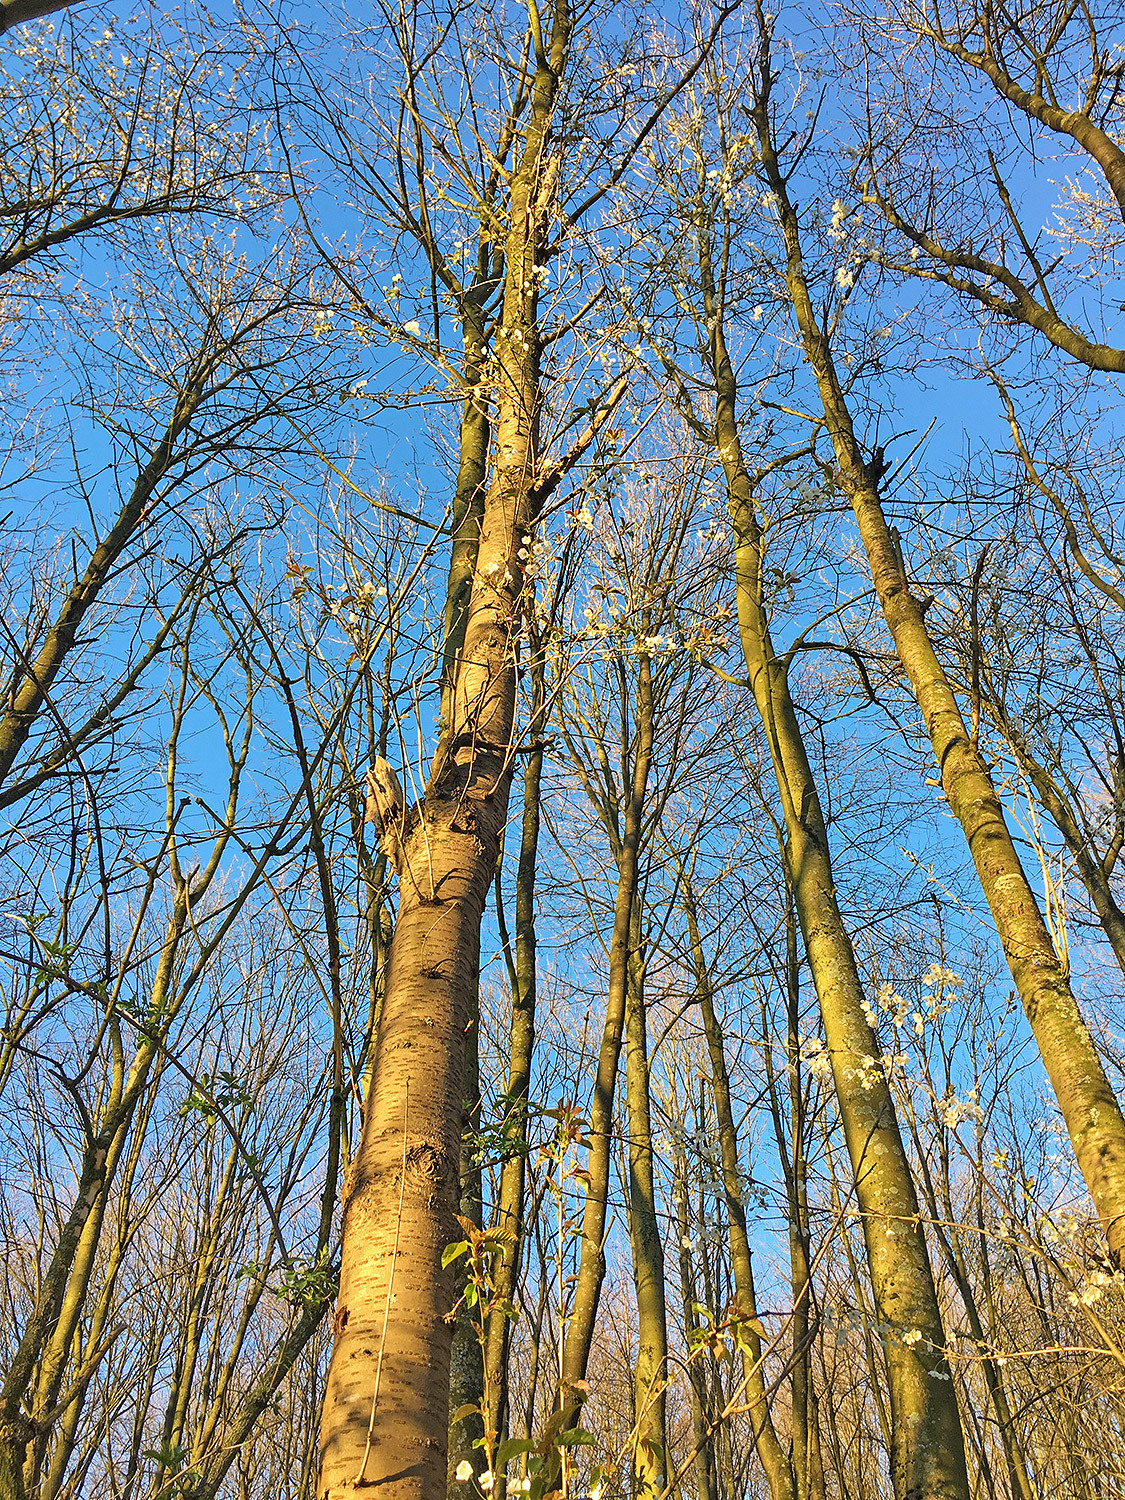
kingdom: Plantae
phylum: Tracheophyta
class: Magnoliopsida
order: Rosales
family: Rosaceae
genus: Prunus
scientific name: Prunus avium
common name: Sweet cherry
